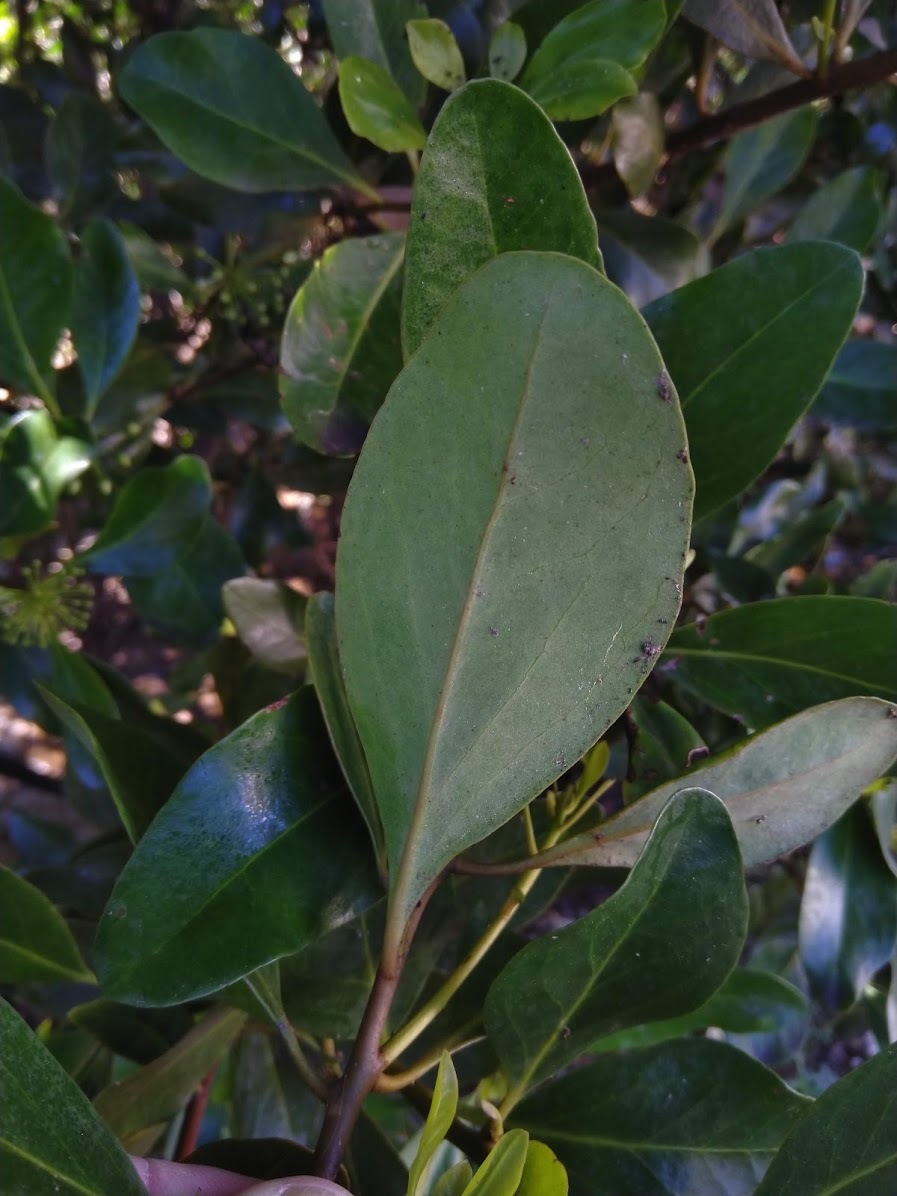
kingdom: Plantae
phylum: Tracheophyta
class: Magnoliopsida
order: Ericales
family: Primulaceae
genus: Aegiceras
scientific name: Aegiceras corniculatum
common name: River mangrove
